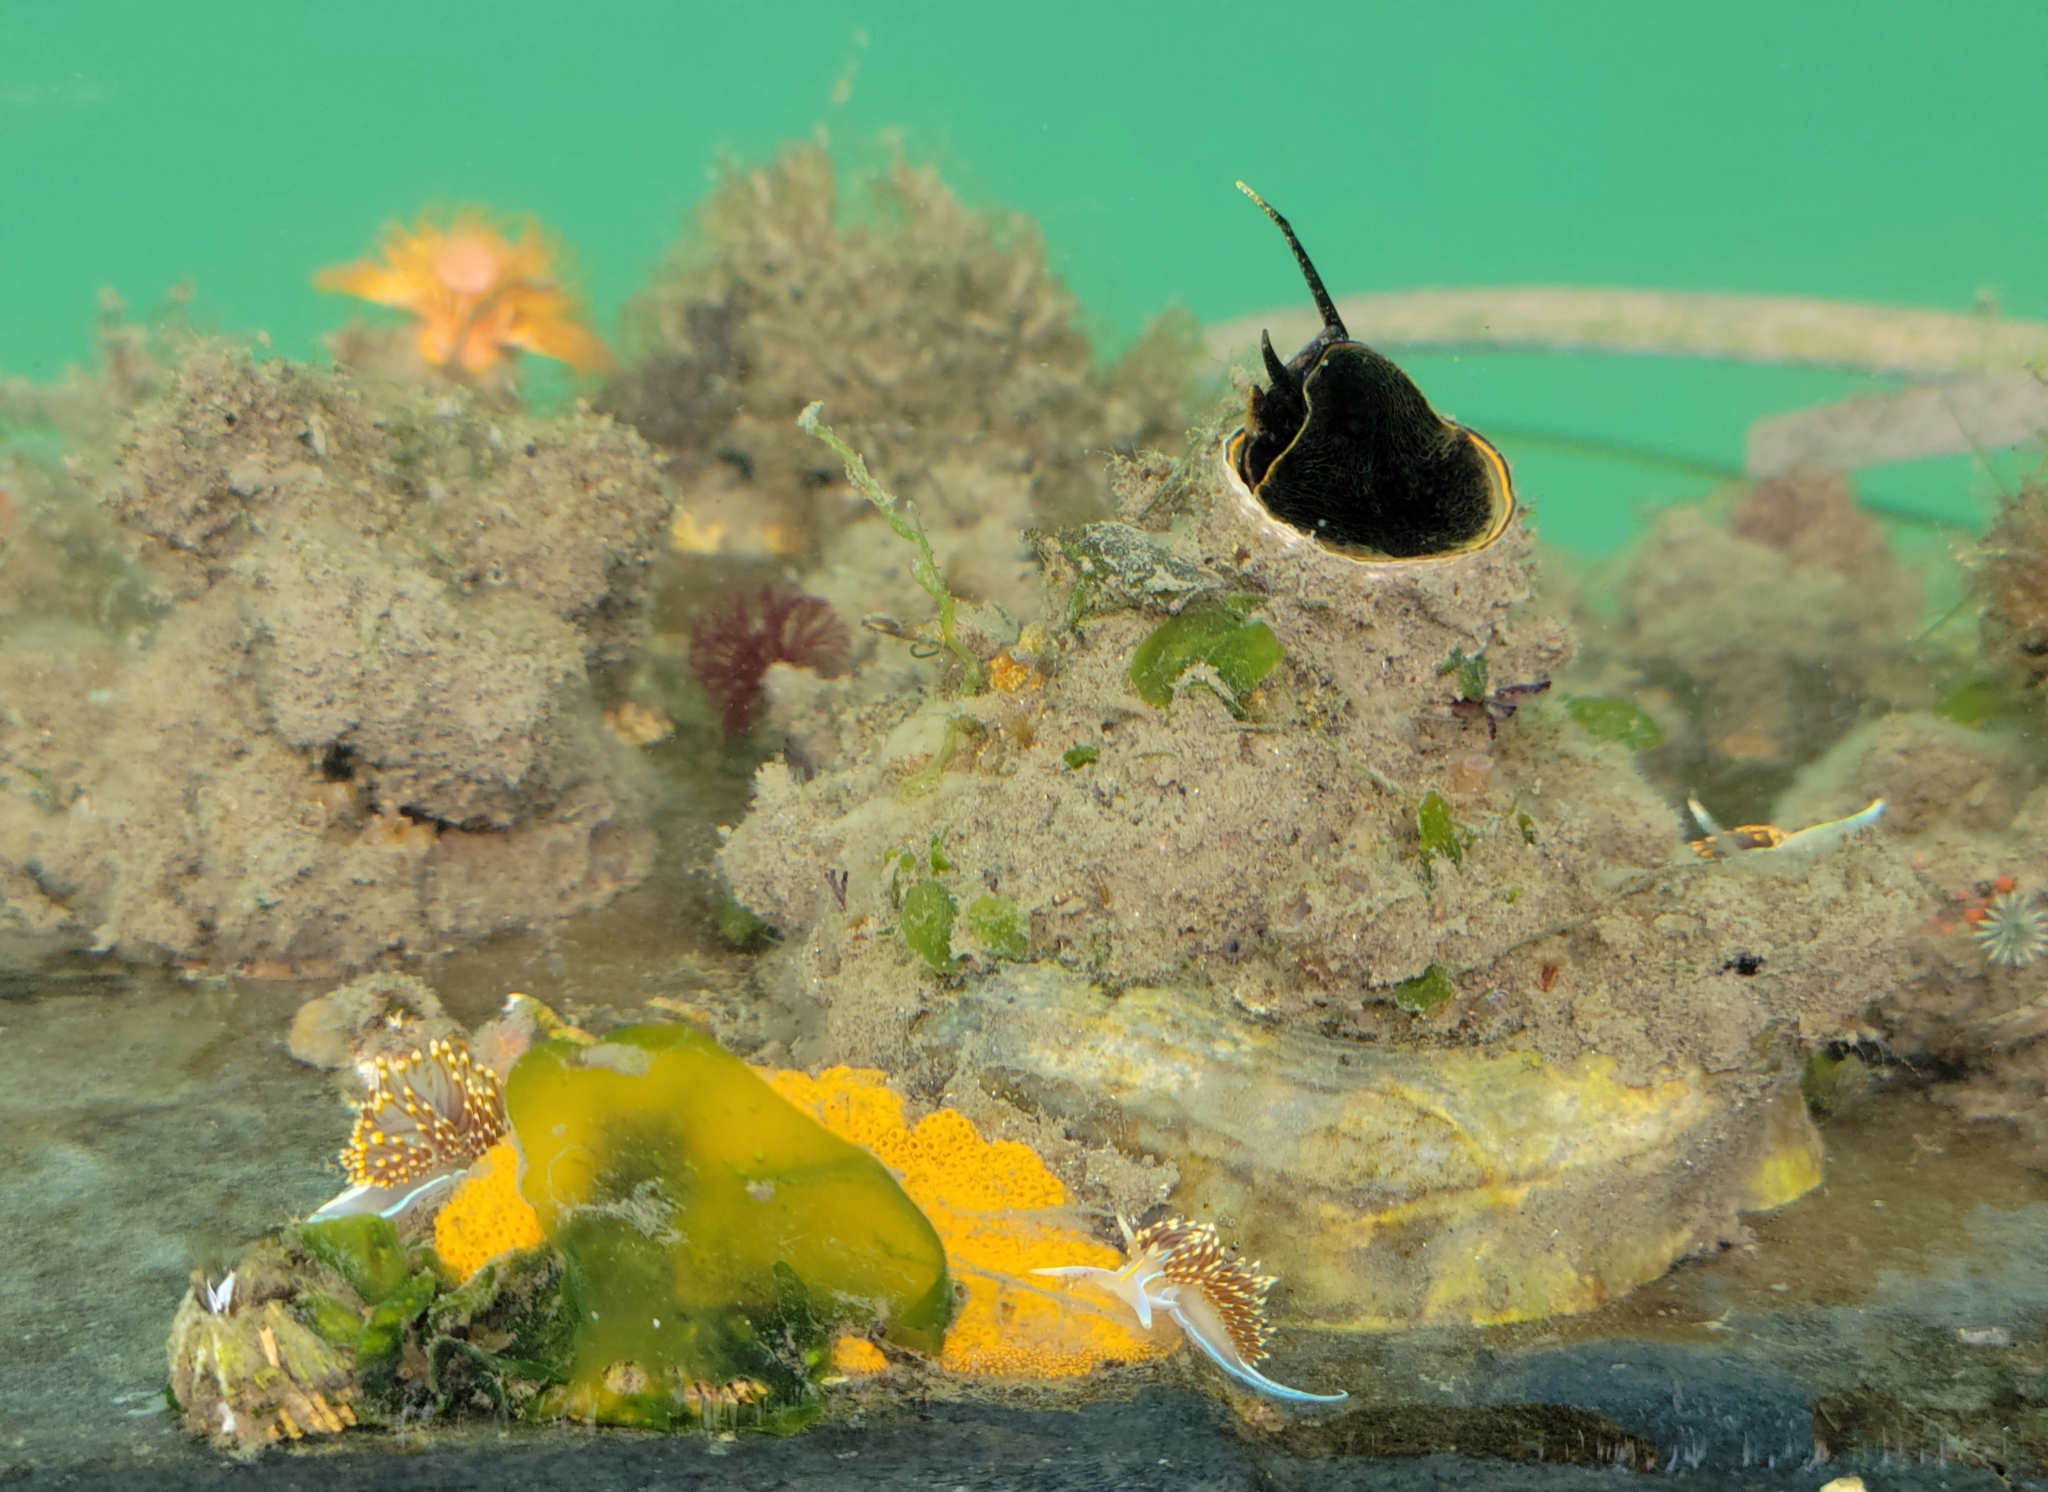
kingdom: Animalia
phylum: Mollusca
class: Gastropoda
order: Littorinimorpha
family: Vermetidae
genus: Thylacodes
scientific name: Thylacodes squamigerus
